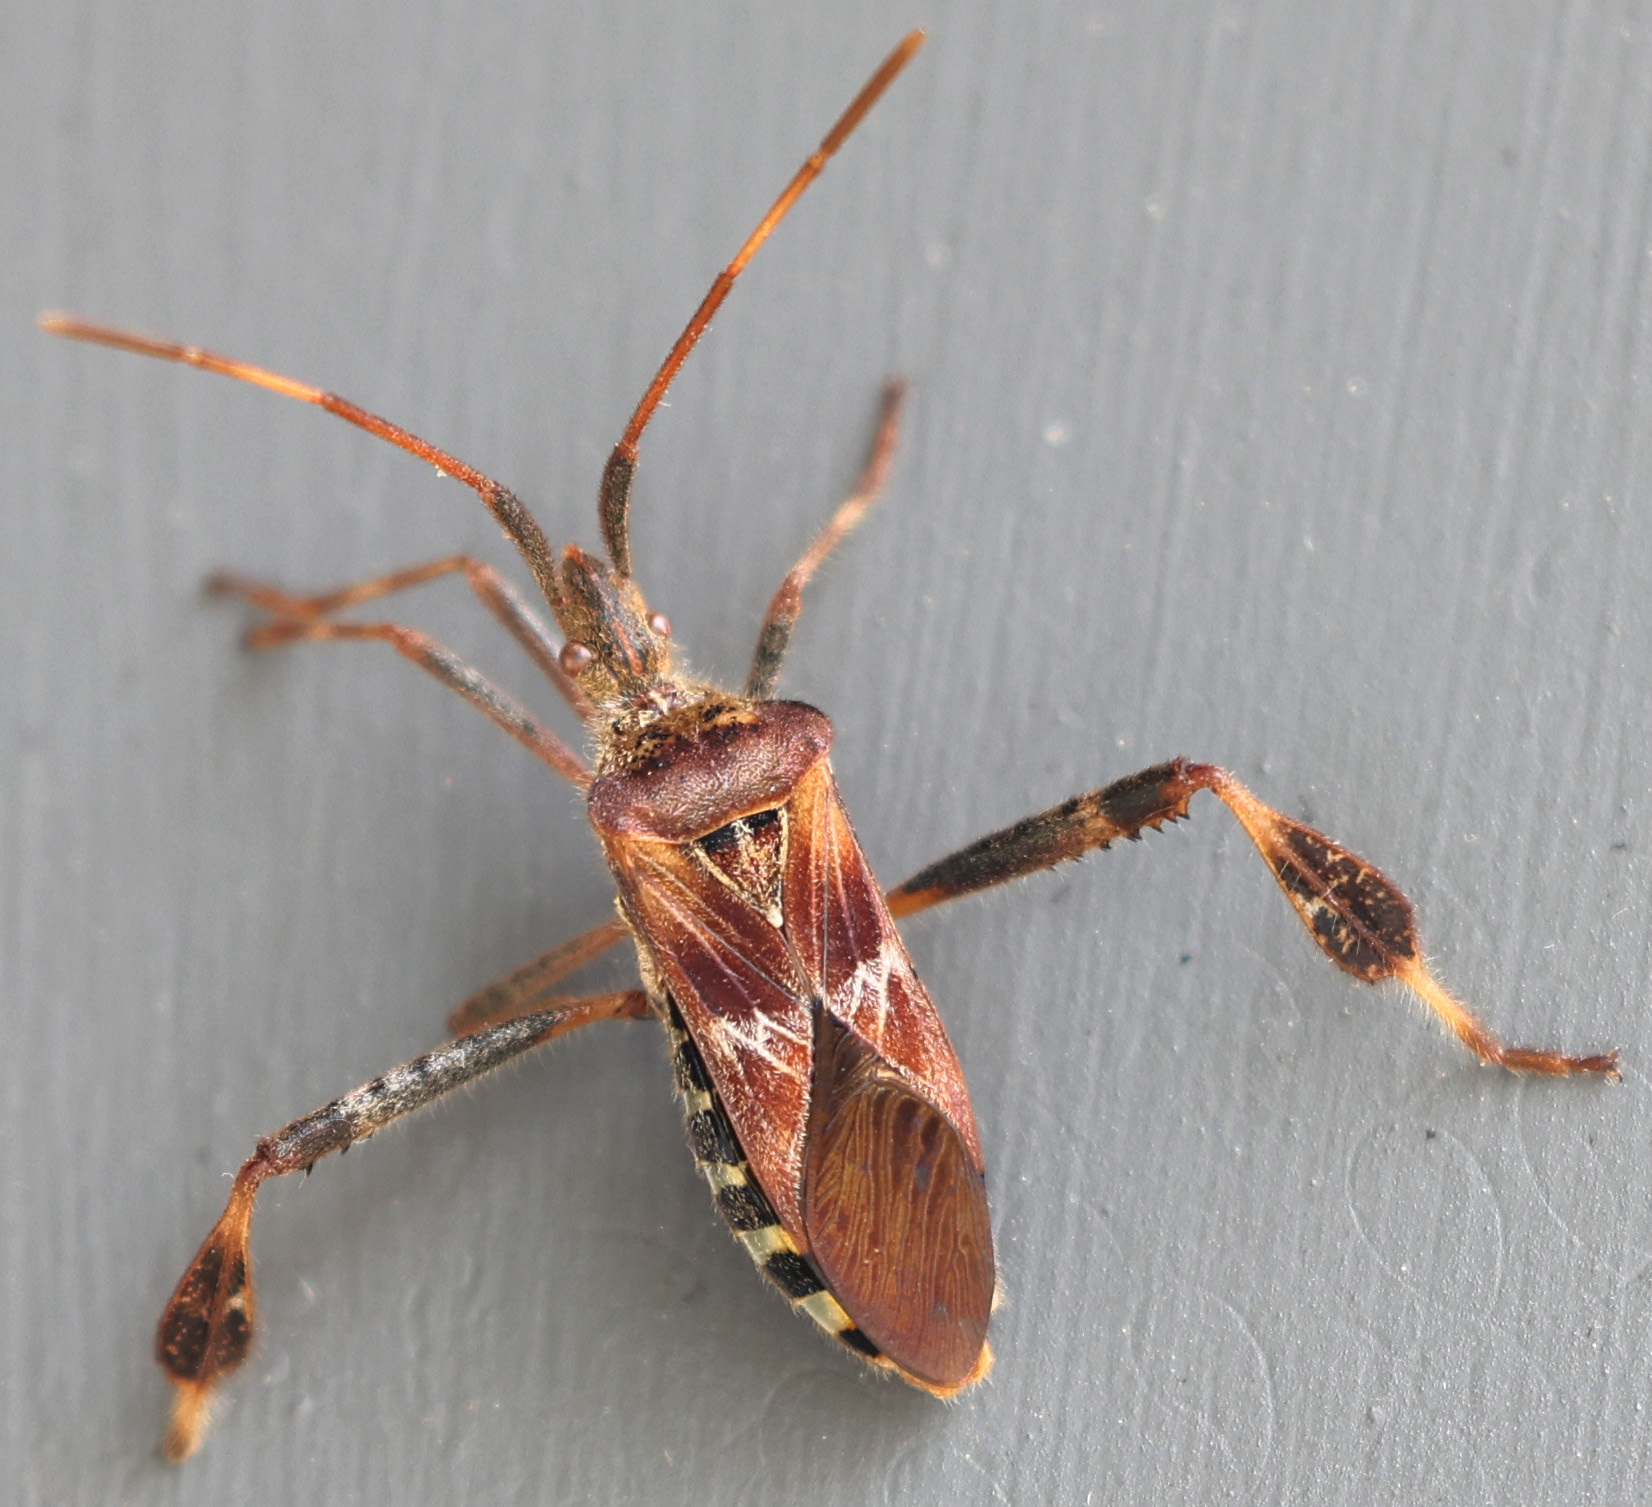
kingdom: Animalia
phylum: Arthropoda
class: Insecta
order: Hemiptera
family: Coreidae
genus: Leptoglossus
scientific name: Leptoglossus occidentalis
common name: Western conifer-seed bug
